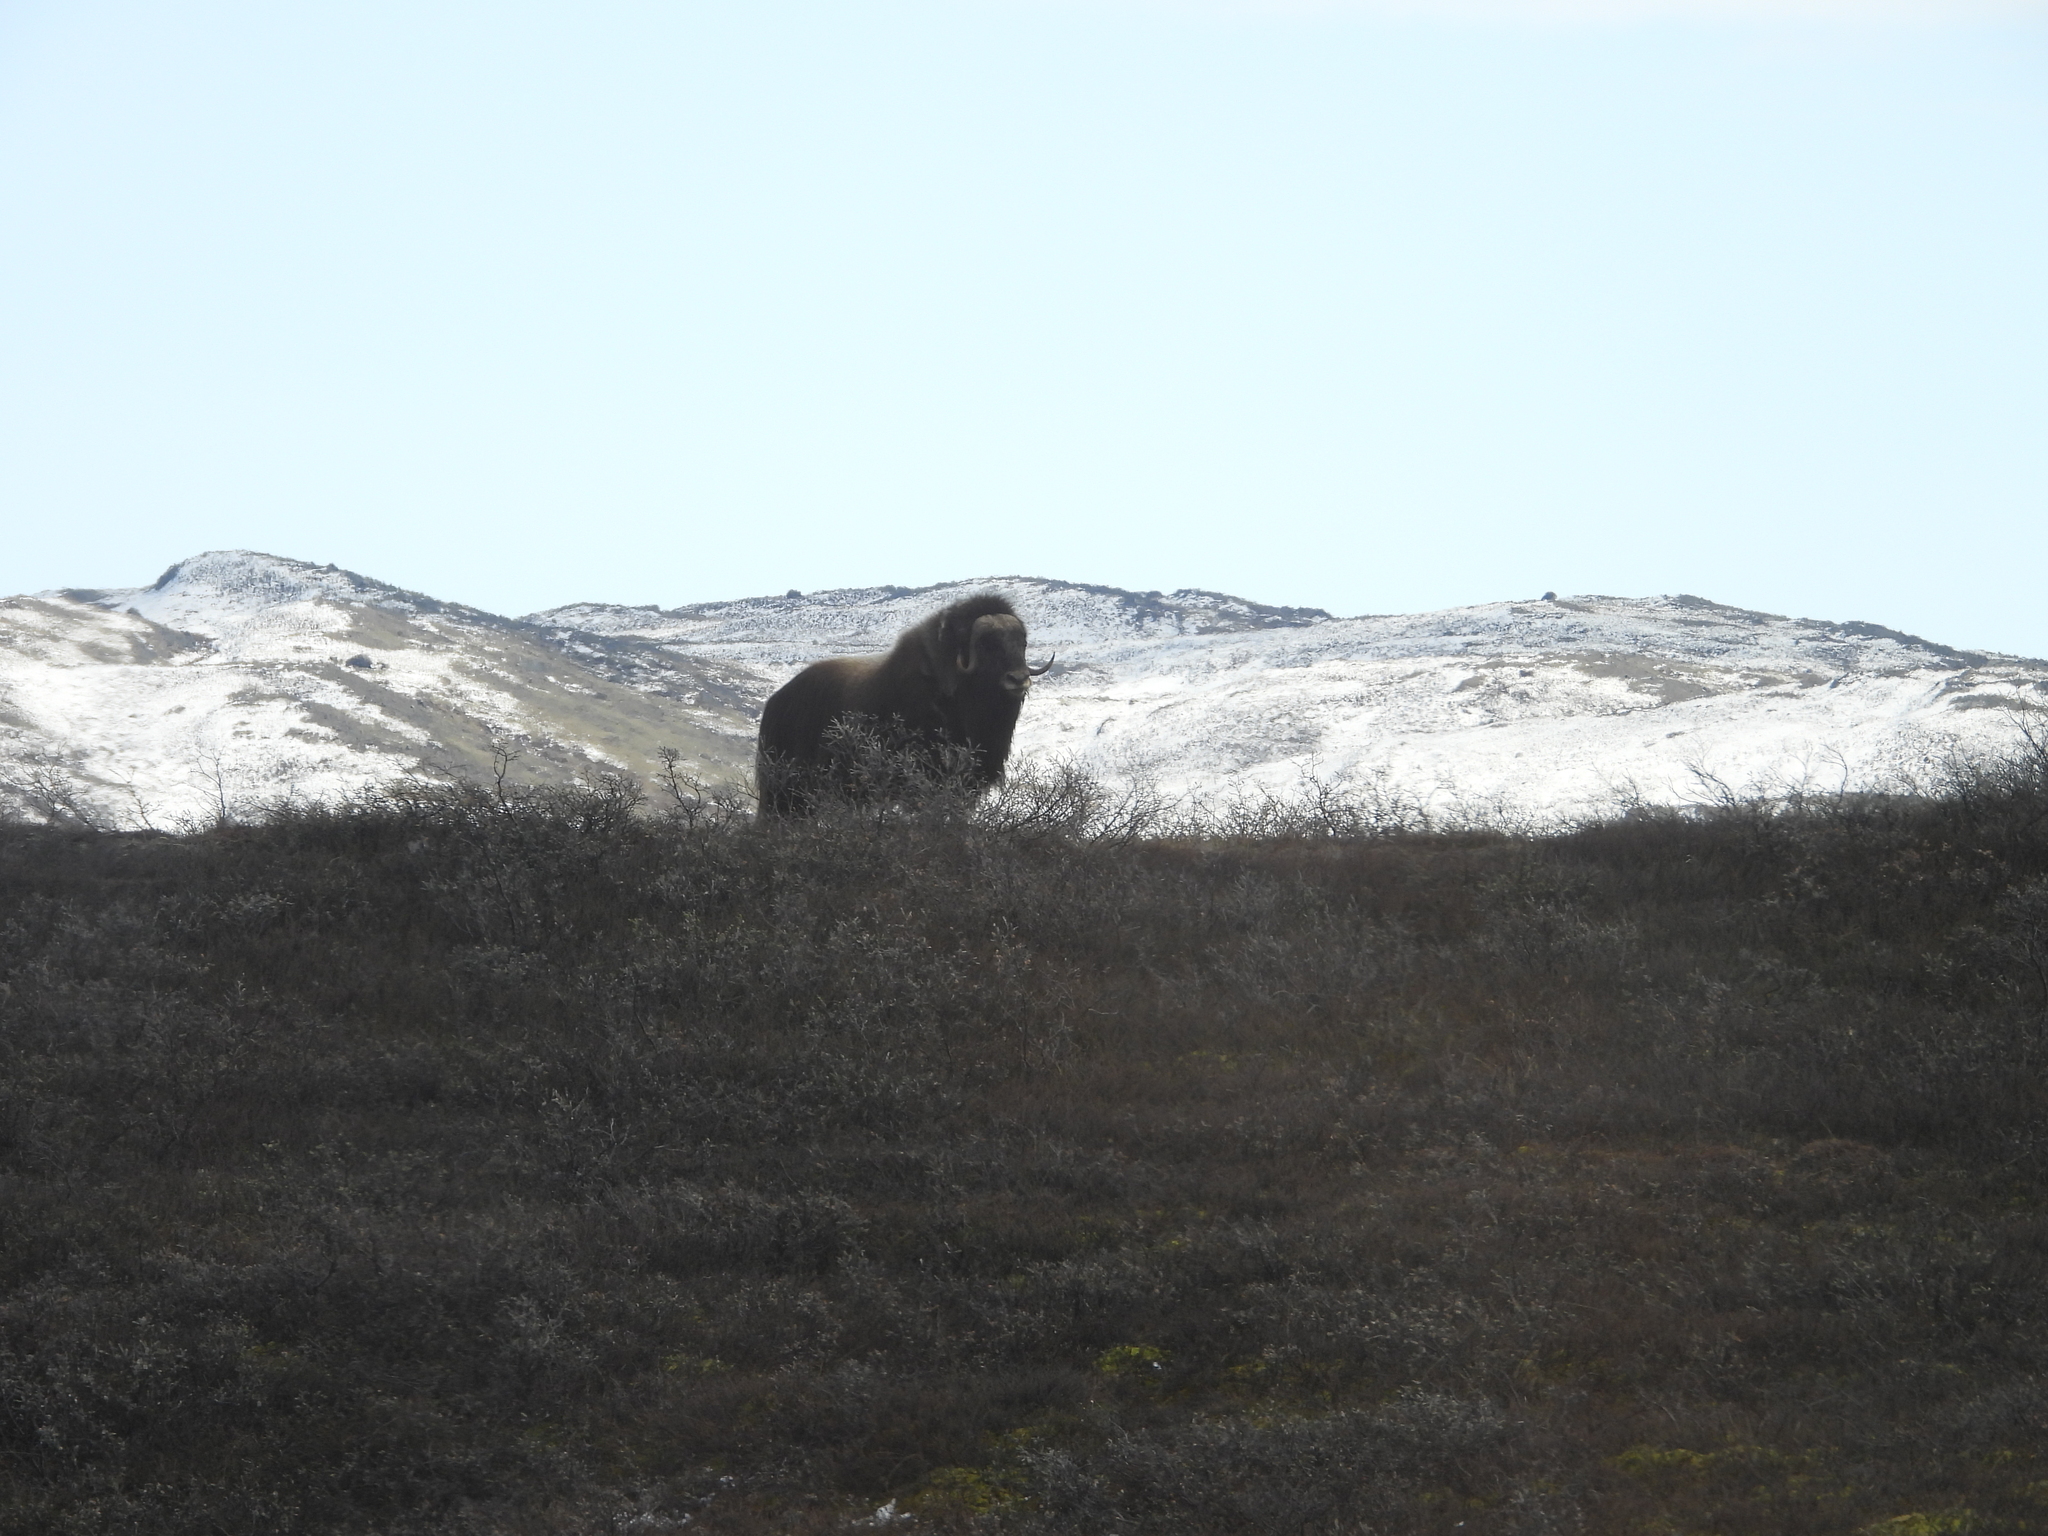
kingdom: Animalia
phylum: Chordata
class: Mammalia
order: Artiodactyla
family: Bovidae
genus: Ovibos
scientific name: Ovibos moschatus
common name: Muskox
